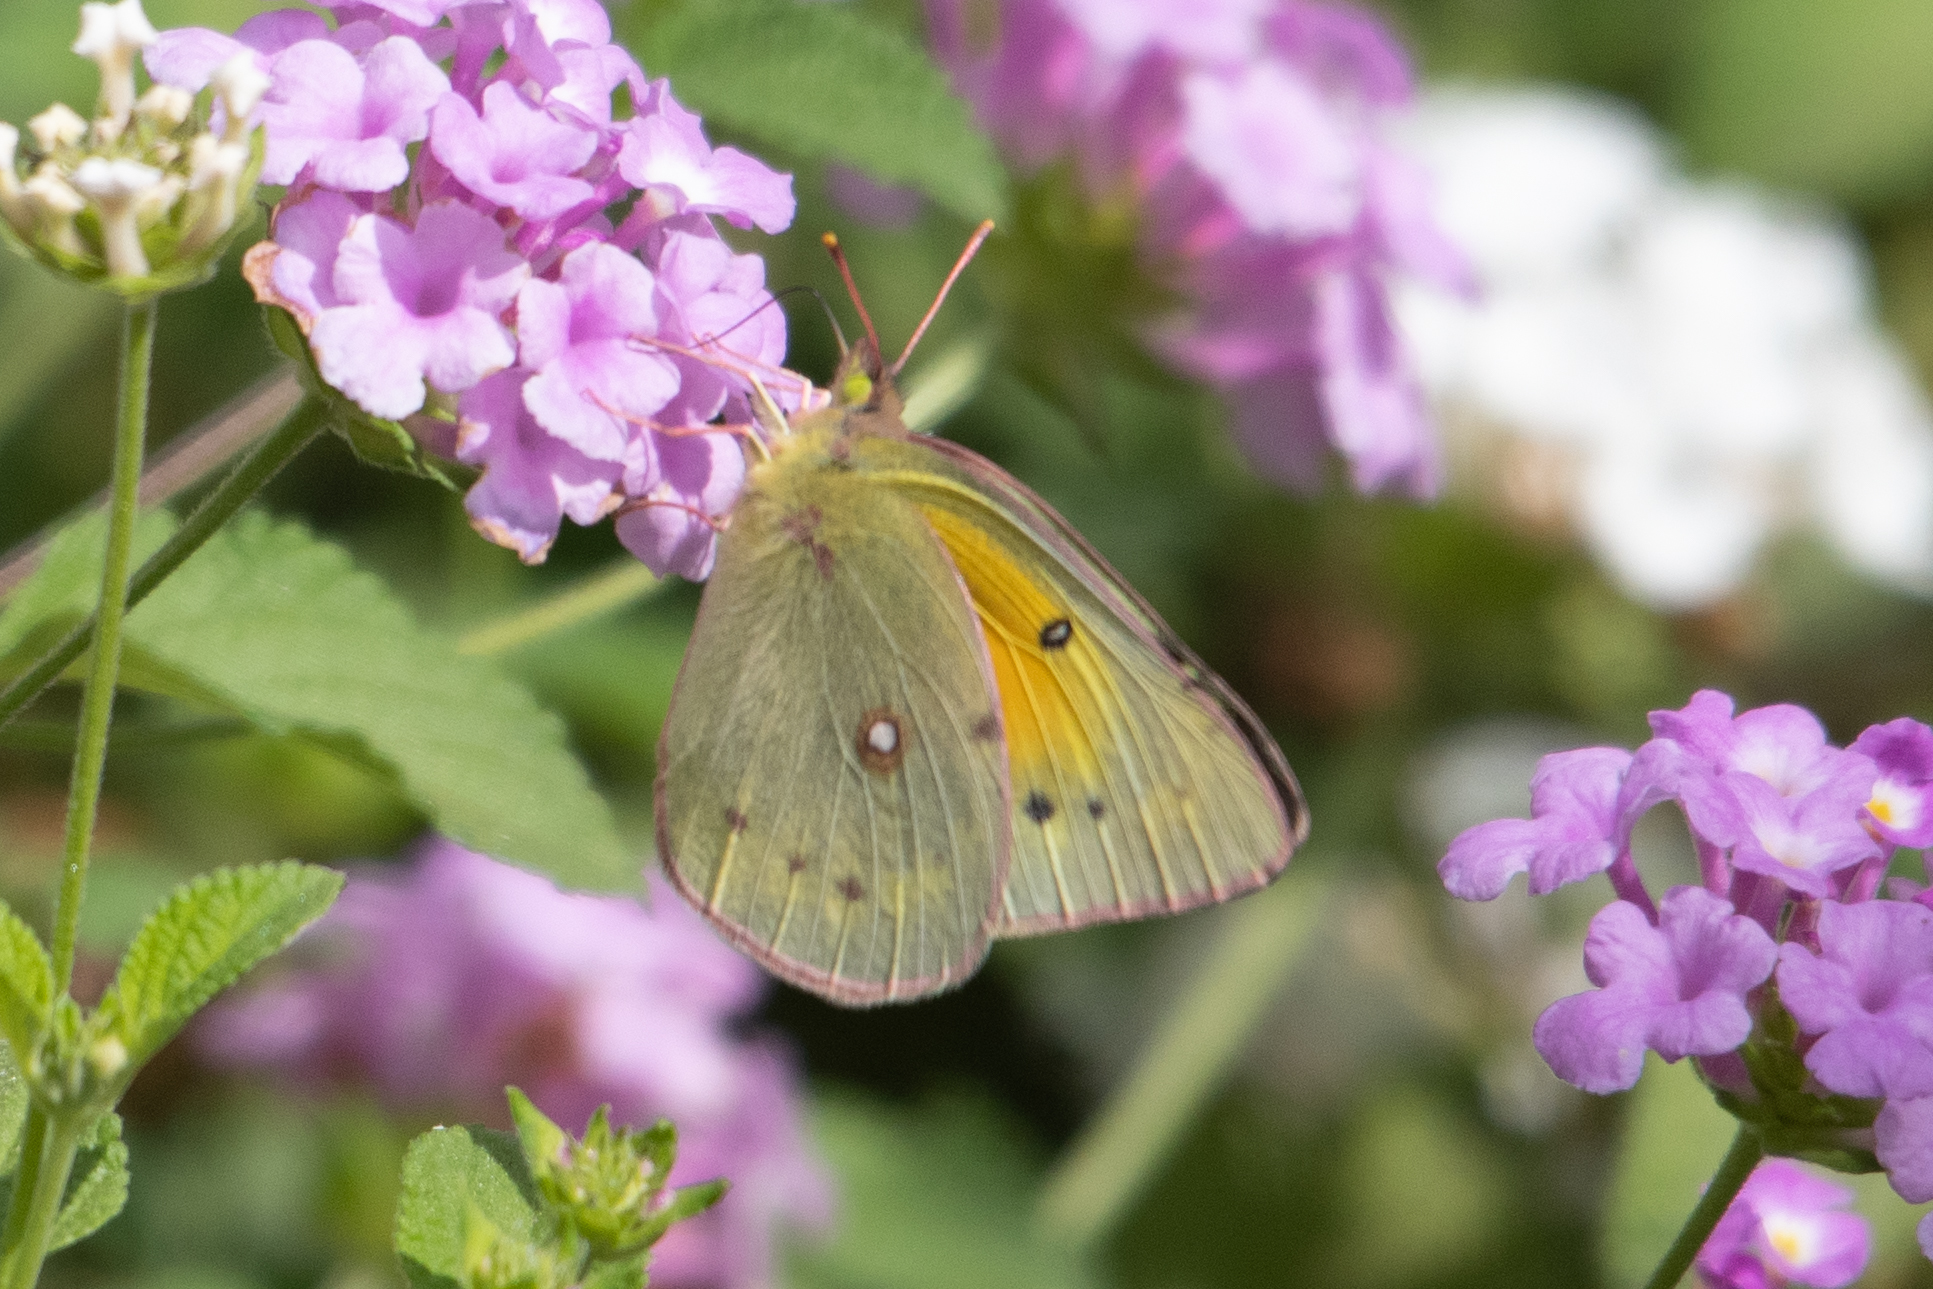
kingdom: Animalia
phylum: Arthropoda
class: Insecta
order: Lepidoptera
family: Pieridae
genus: Colias
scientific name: Colias eurytheme
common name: Alfalfa butterfly
